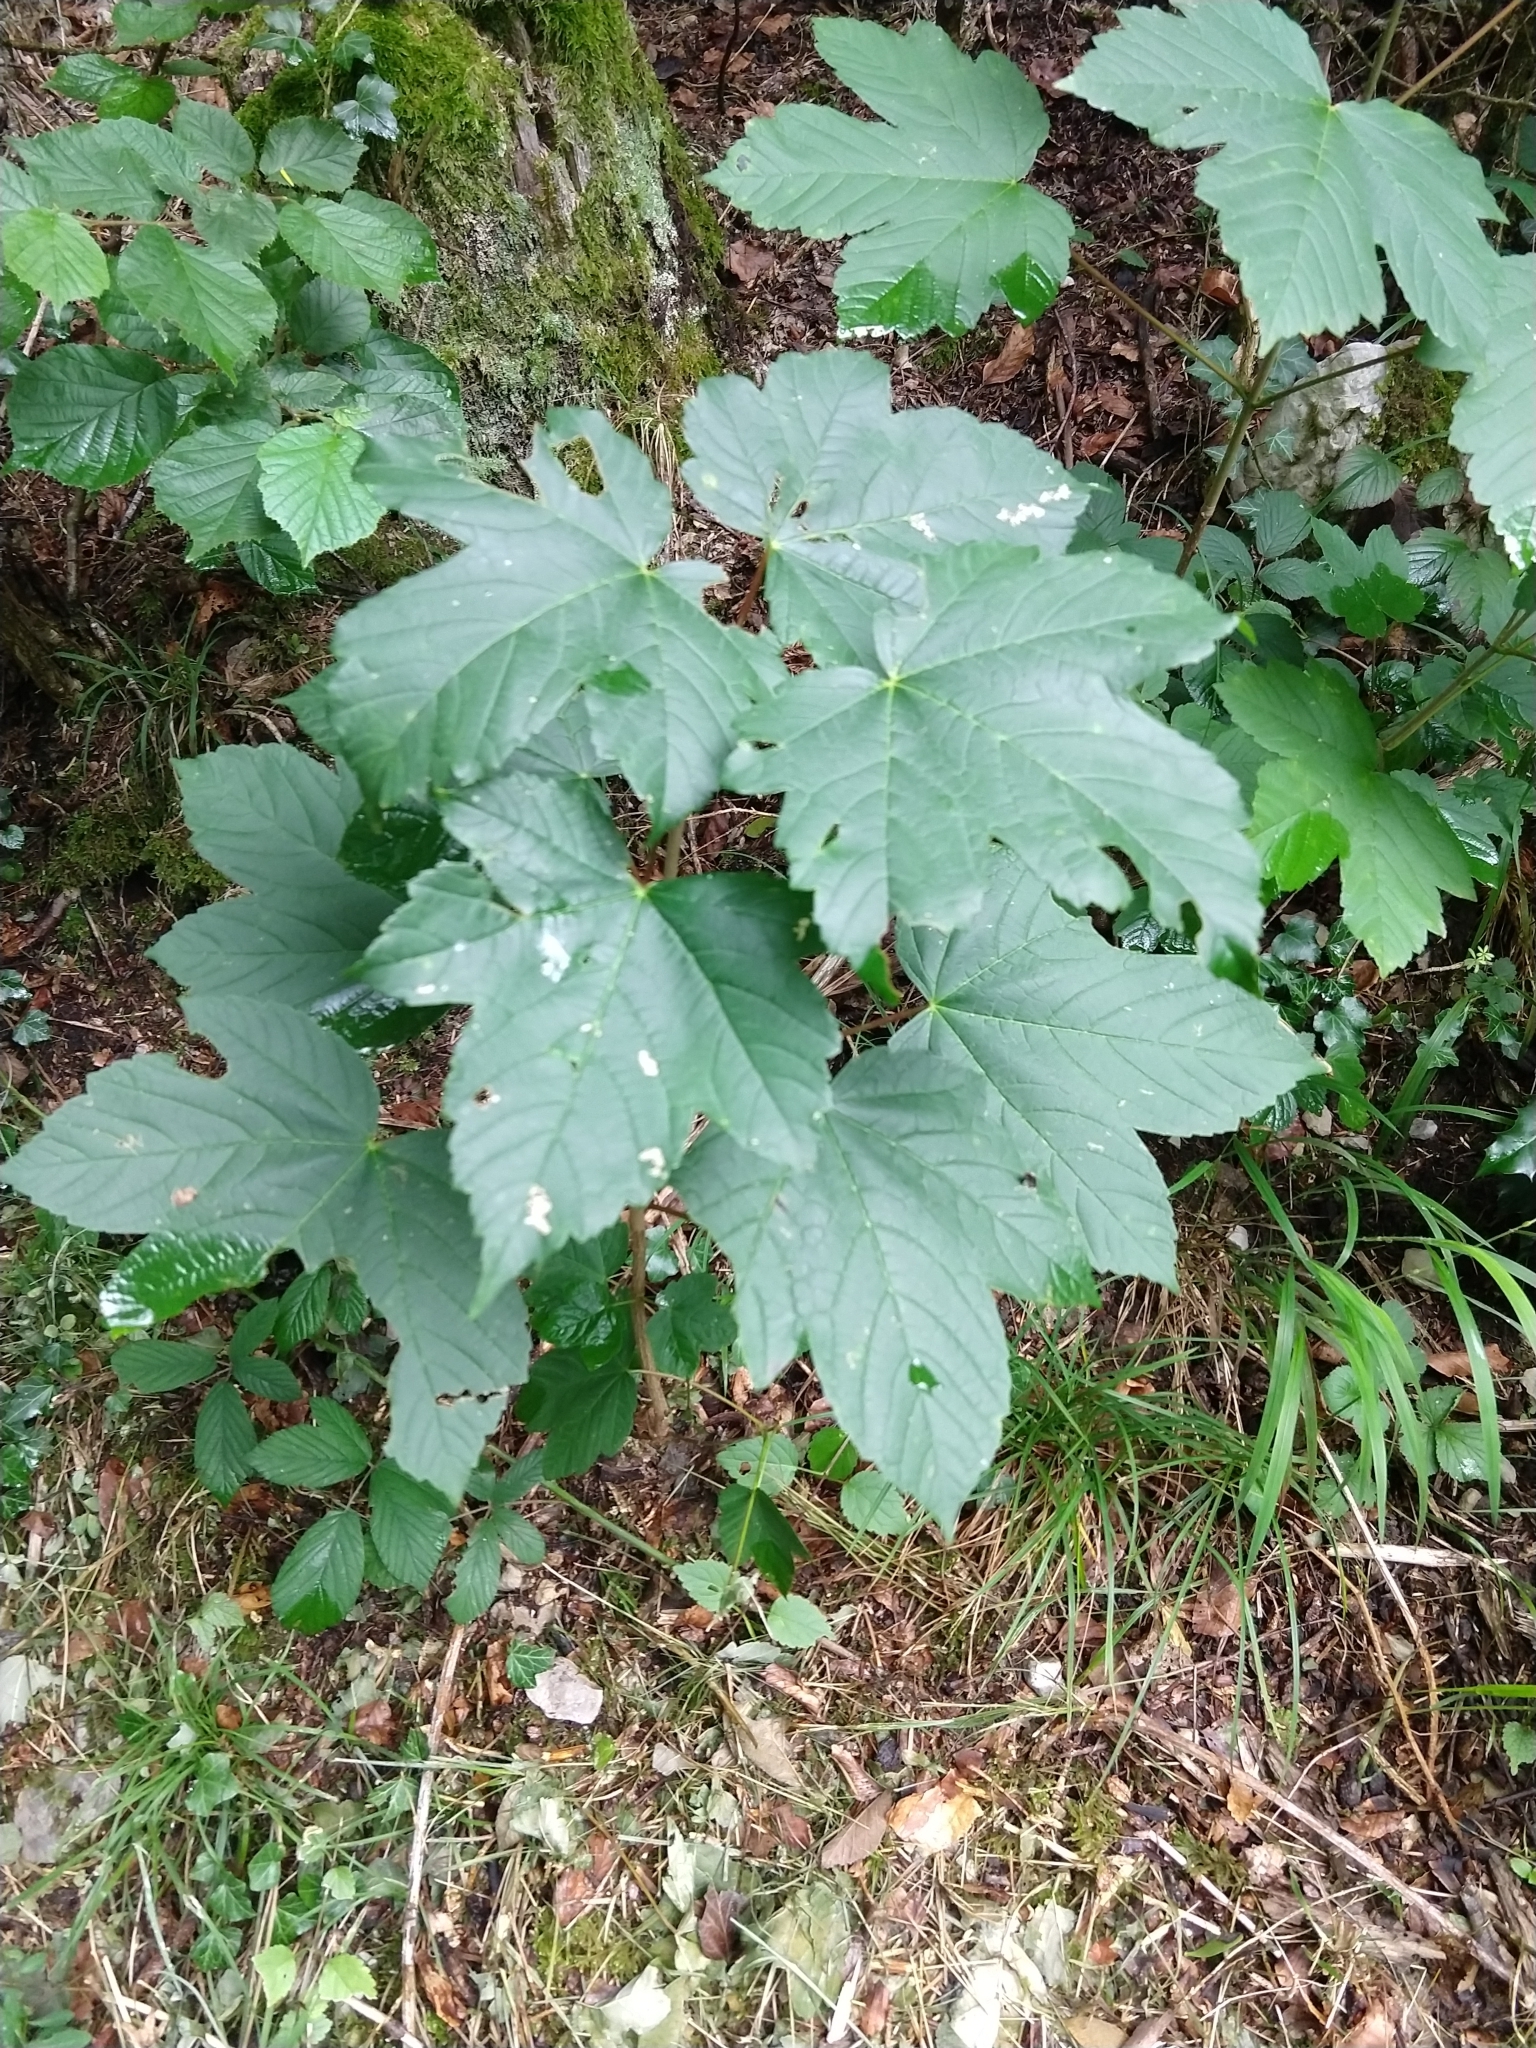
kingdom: Plantae
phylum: Tracheophyta
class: Magnoliopsida
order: Sapindales
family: Sapindaceae
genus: Acer
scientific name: Acer pseudoplatanus
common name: Sycamore
